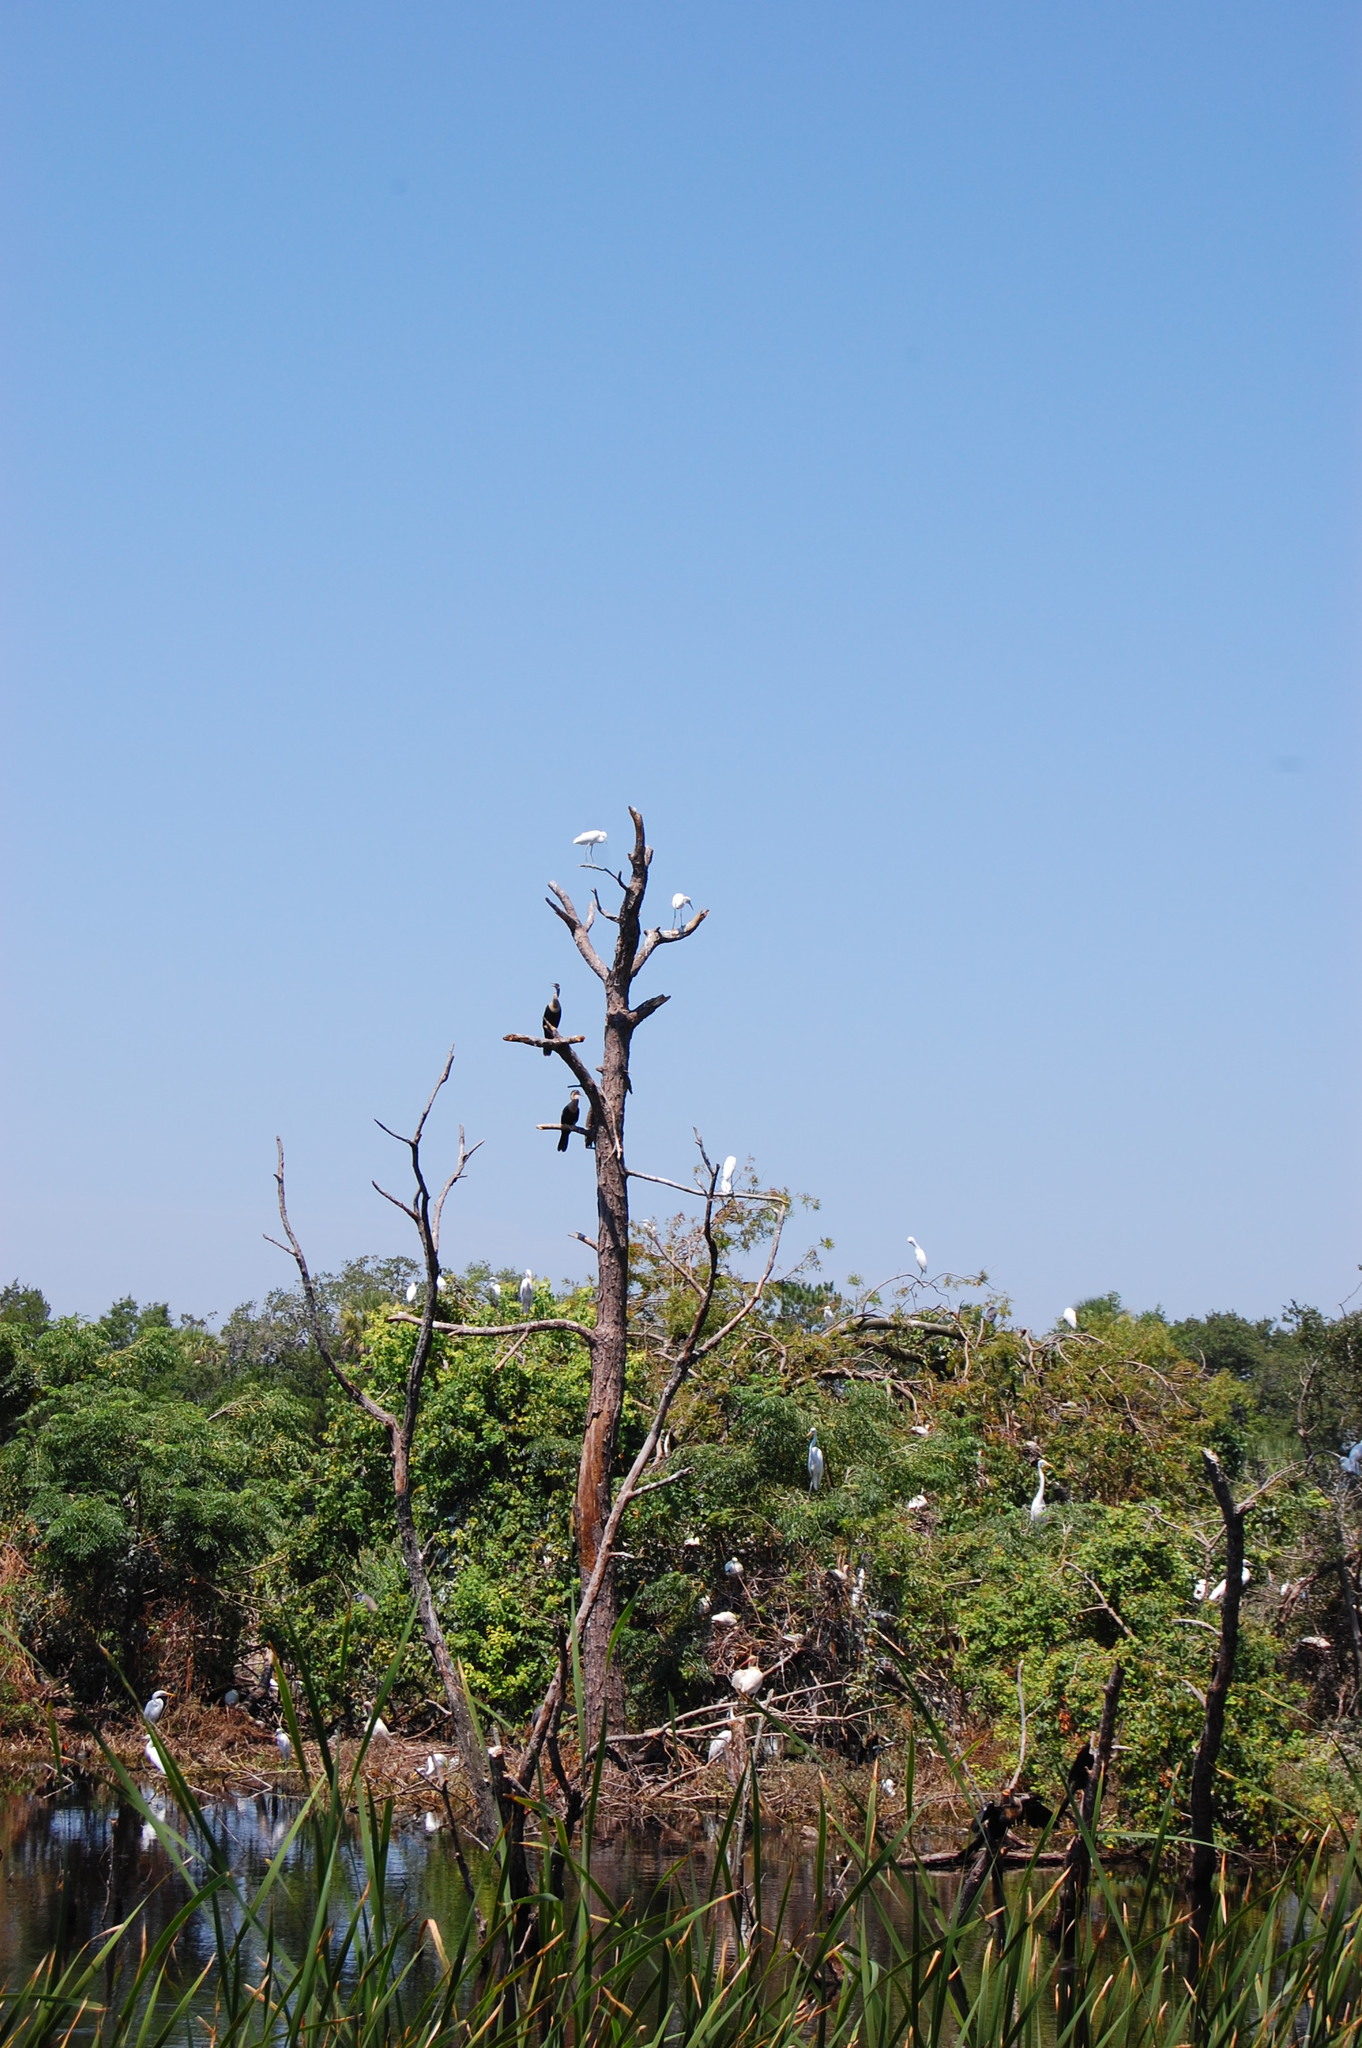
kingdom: Animalia
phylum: Chordata
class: Aves
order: Suliformes
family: Anhingidae
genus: Anhinga
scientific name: Anhinga anhinga
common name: Anhinga
